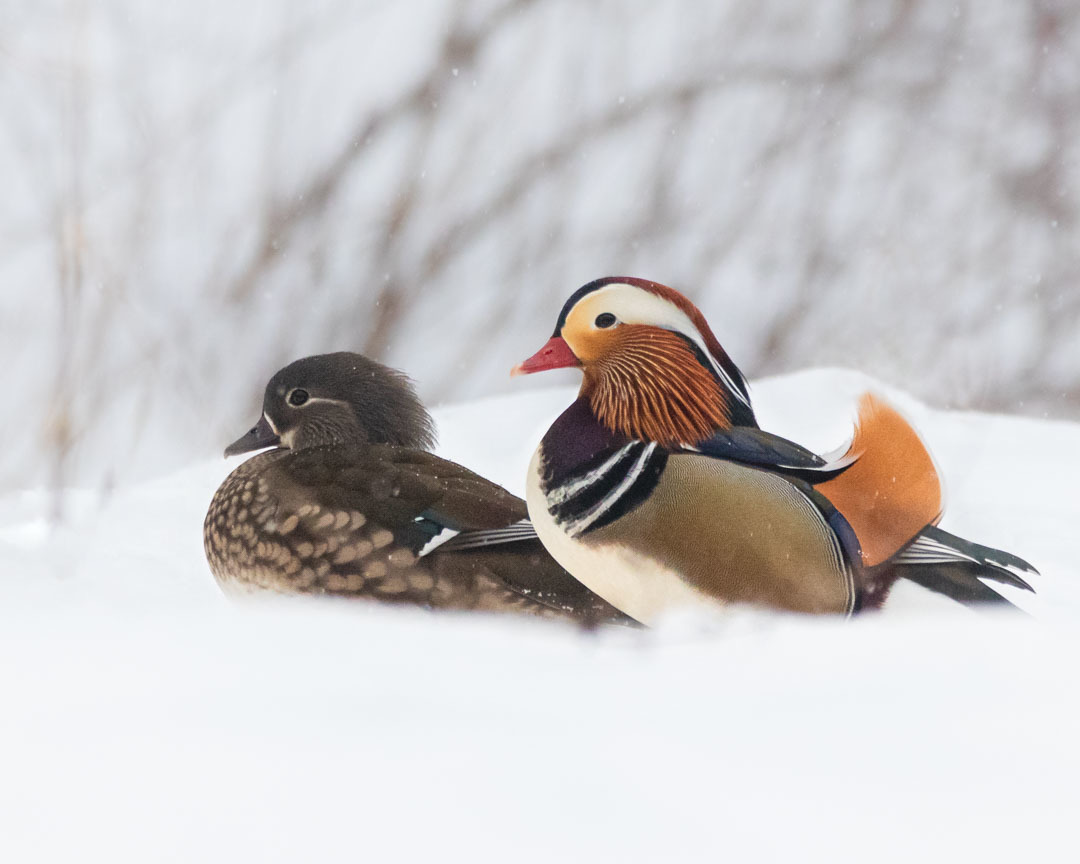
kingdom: Animalia
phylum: Chordata
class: Aves
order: Anseriformes
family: Anatidae
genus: Aix
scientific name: Aix galericulata
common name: Mandarin duck
